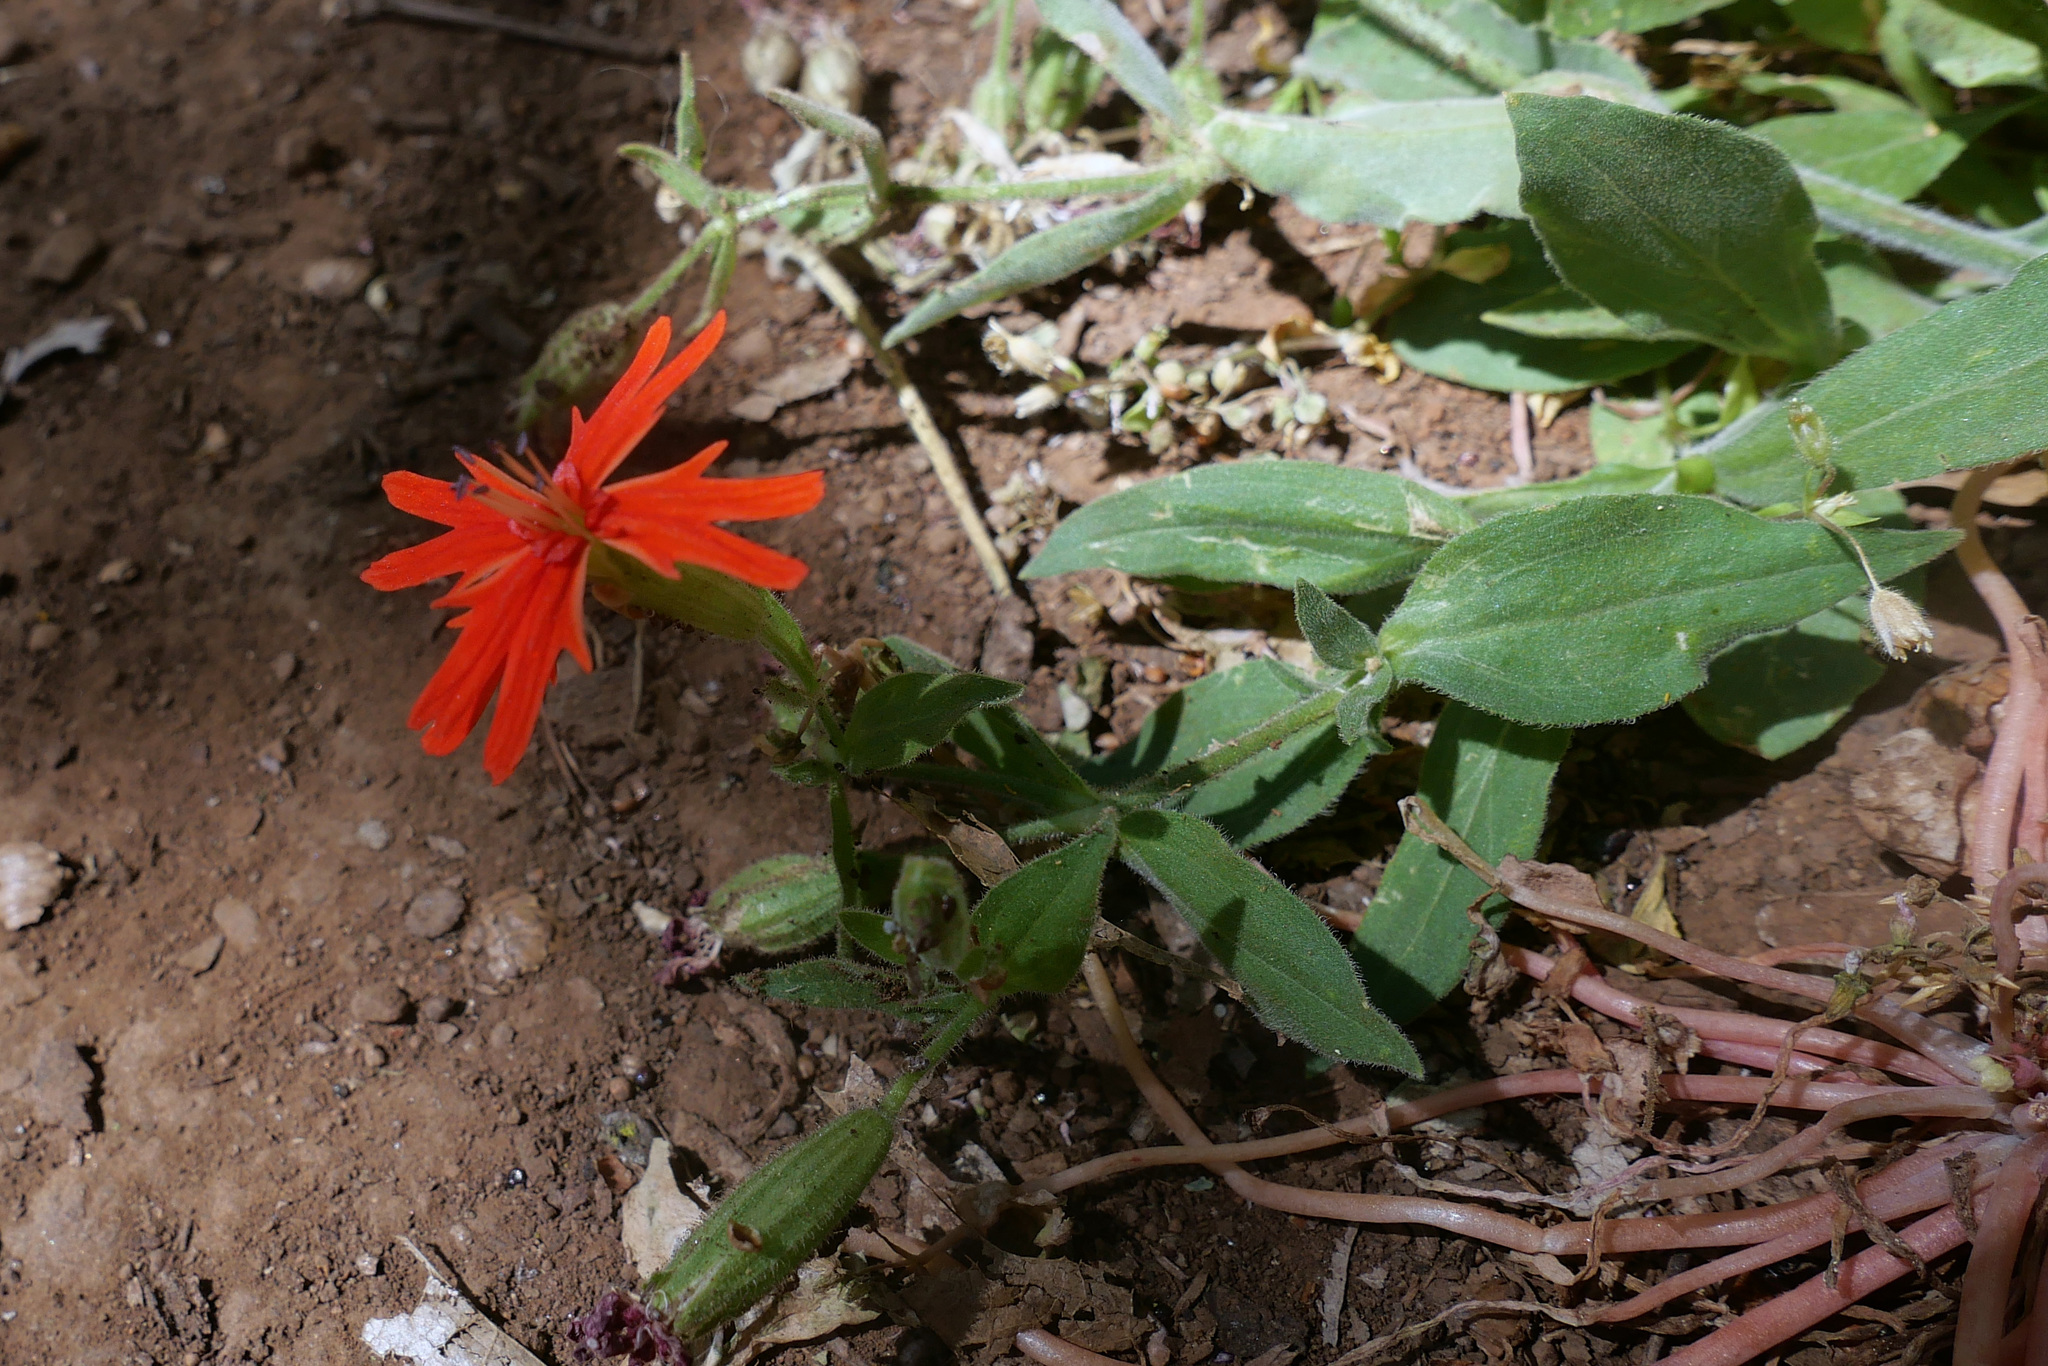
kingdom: Plantae
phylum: Tracheophyta
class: Magnoliopsida
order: Caryophyllales
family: Caryophyllaceae
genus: Silene
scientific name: Silene laciniata
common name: Indian-pink
